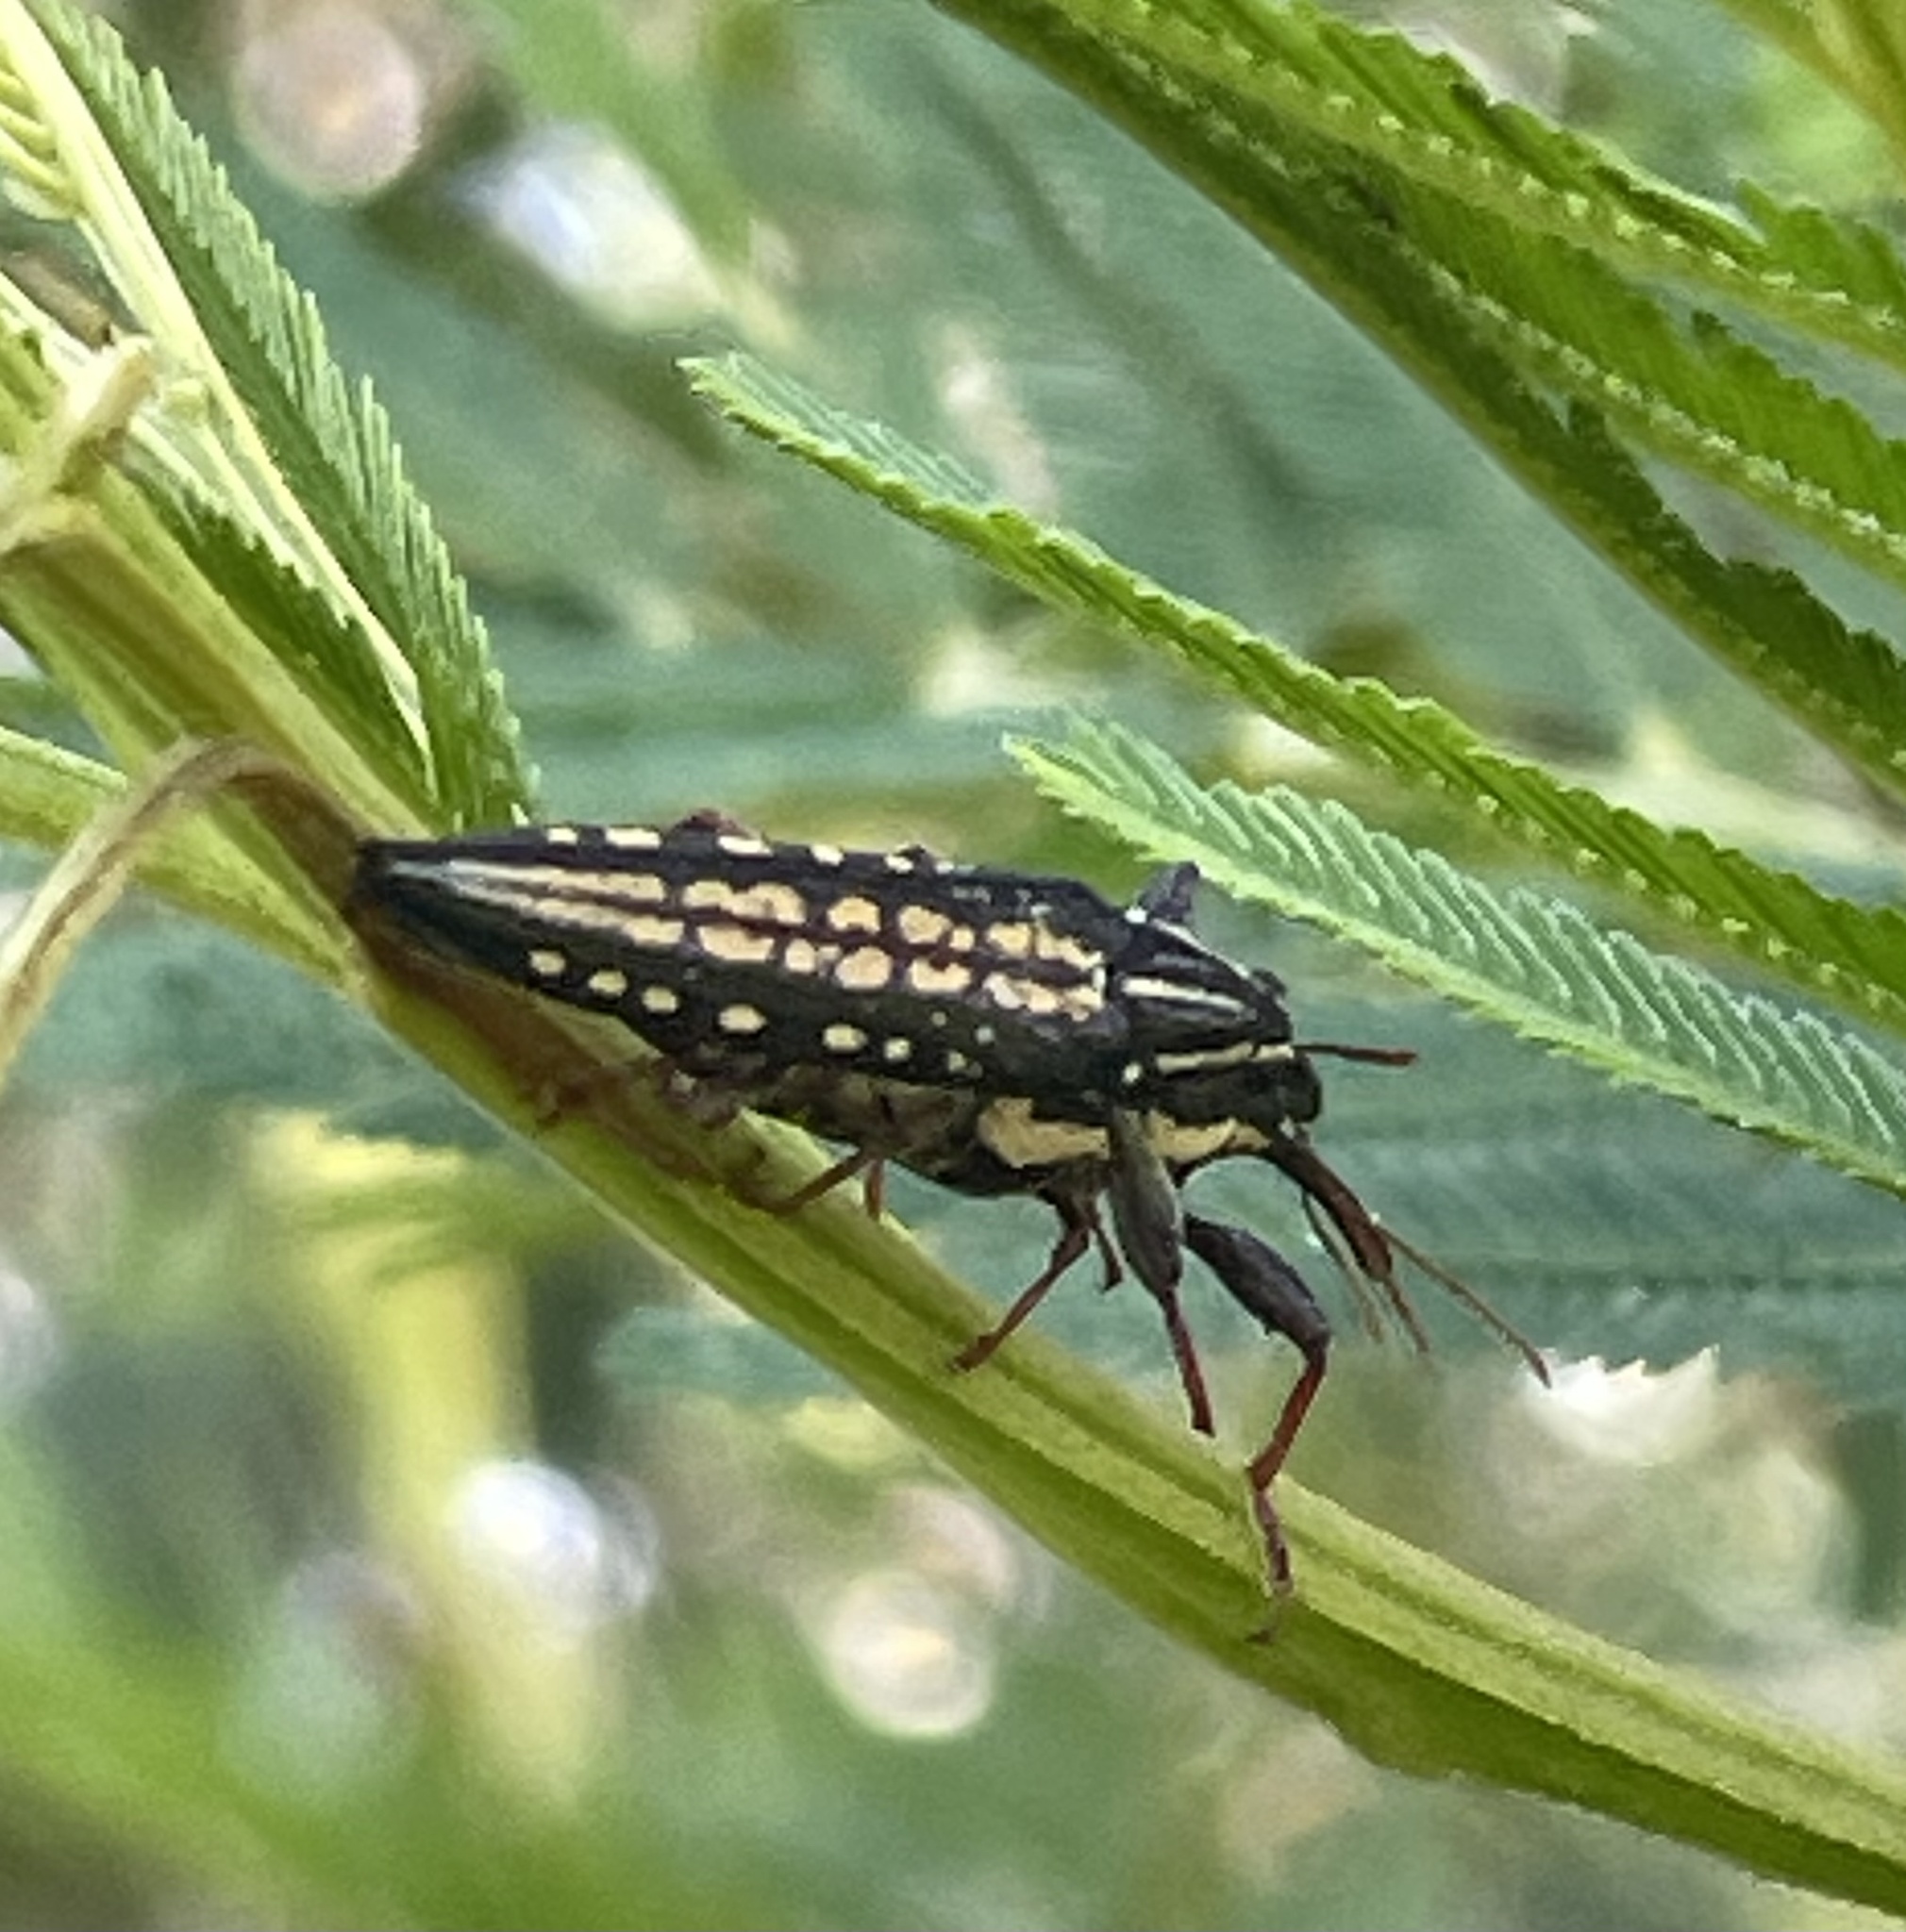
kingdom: Animalia
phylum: Arthropoda
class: Insecta
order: Coleoptera
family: Belidae
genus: Rhinotia
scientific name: Rhinotia lineata
